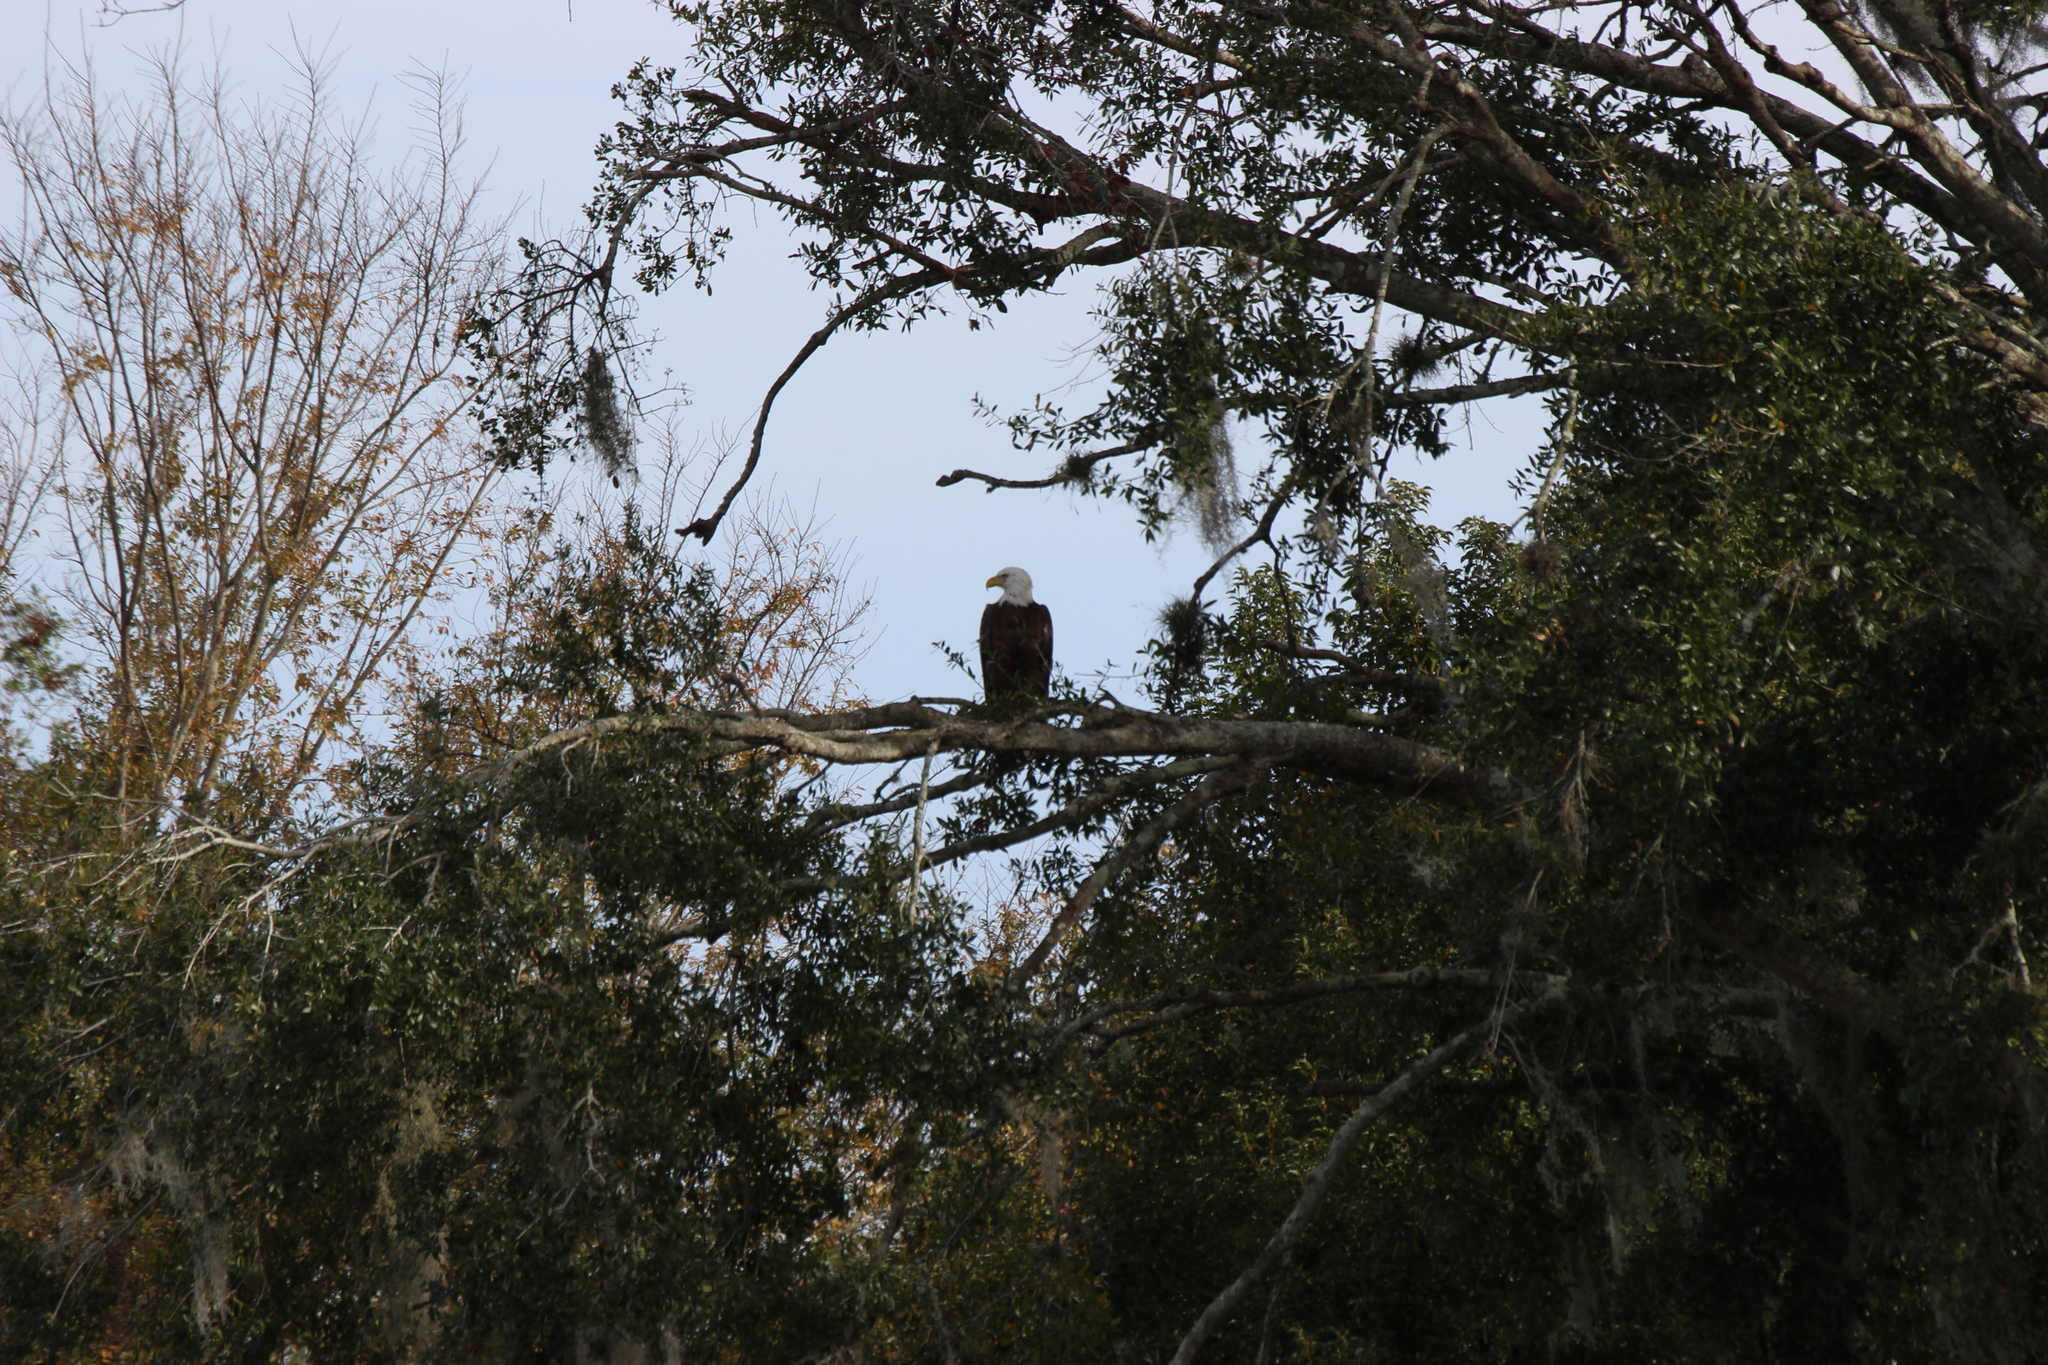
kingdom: Animalia
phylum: Chordata
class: Aves
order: Accipitriformes
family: Accipitridae
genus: Haliaeetus
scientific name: Haliaeetus leucocephalus
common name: Bald eagle
